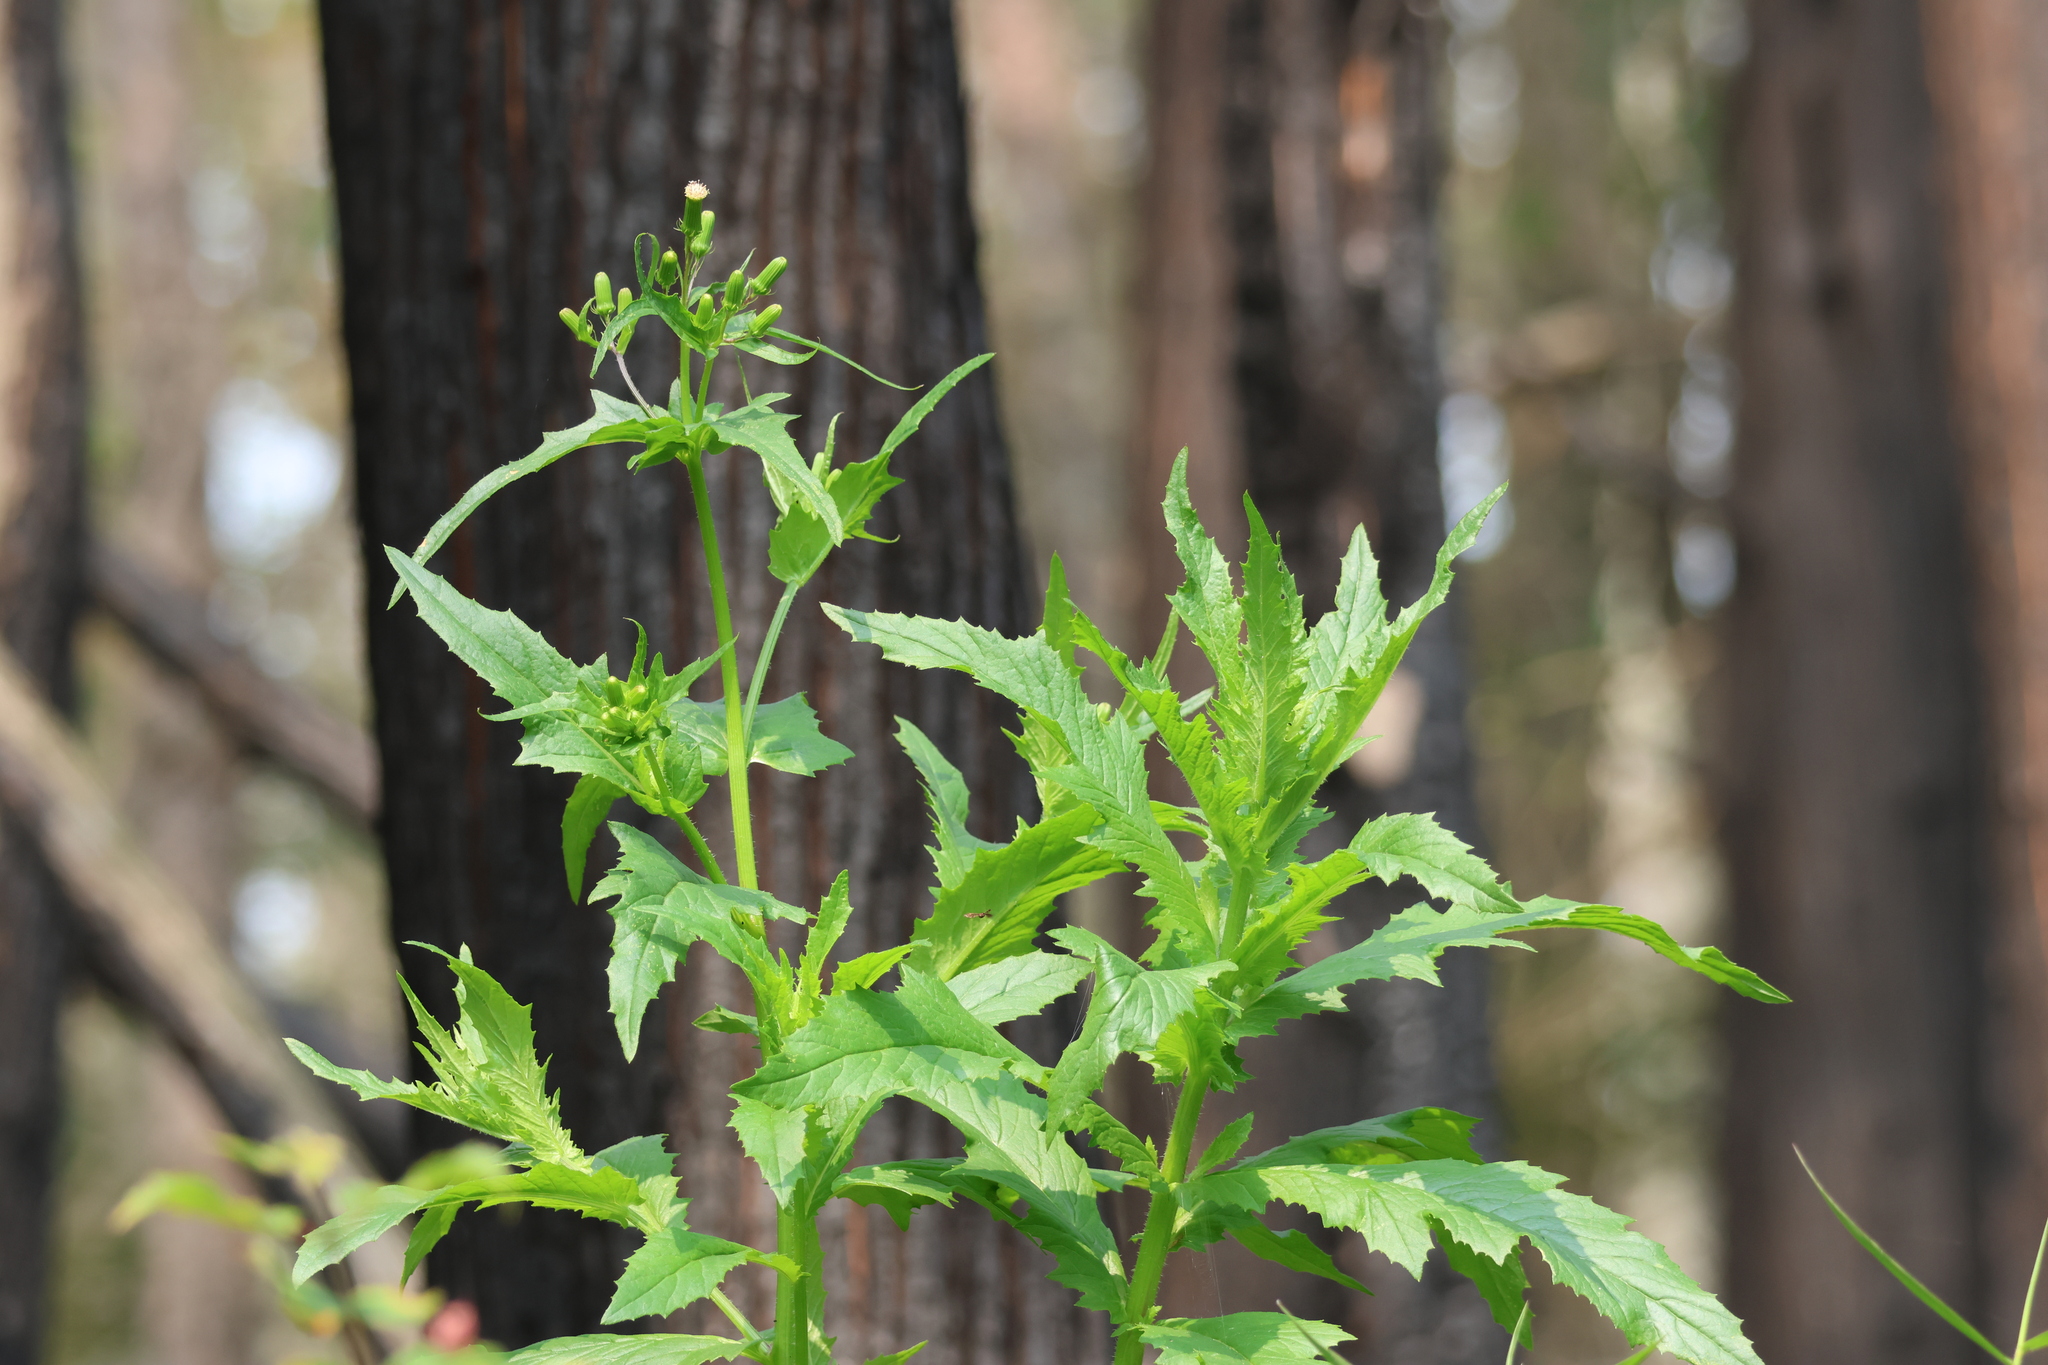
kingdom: Plantae
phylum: Tracheophyta
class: Magnoliopsida
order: Asterales
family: Asteraceae
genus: Erechtites
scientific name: Erechtites hieraciifolius
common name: American burnweed
